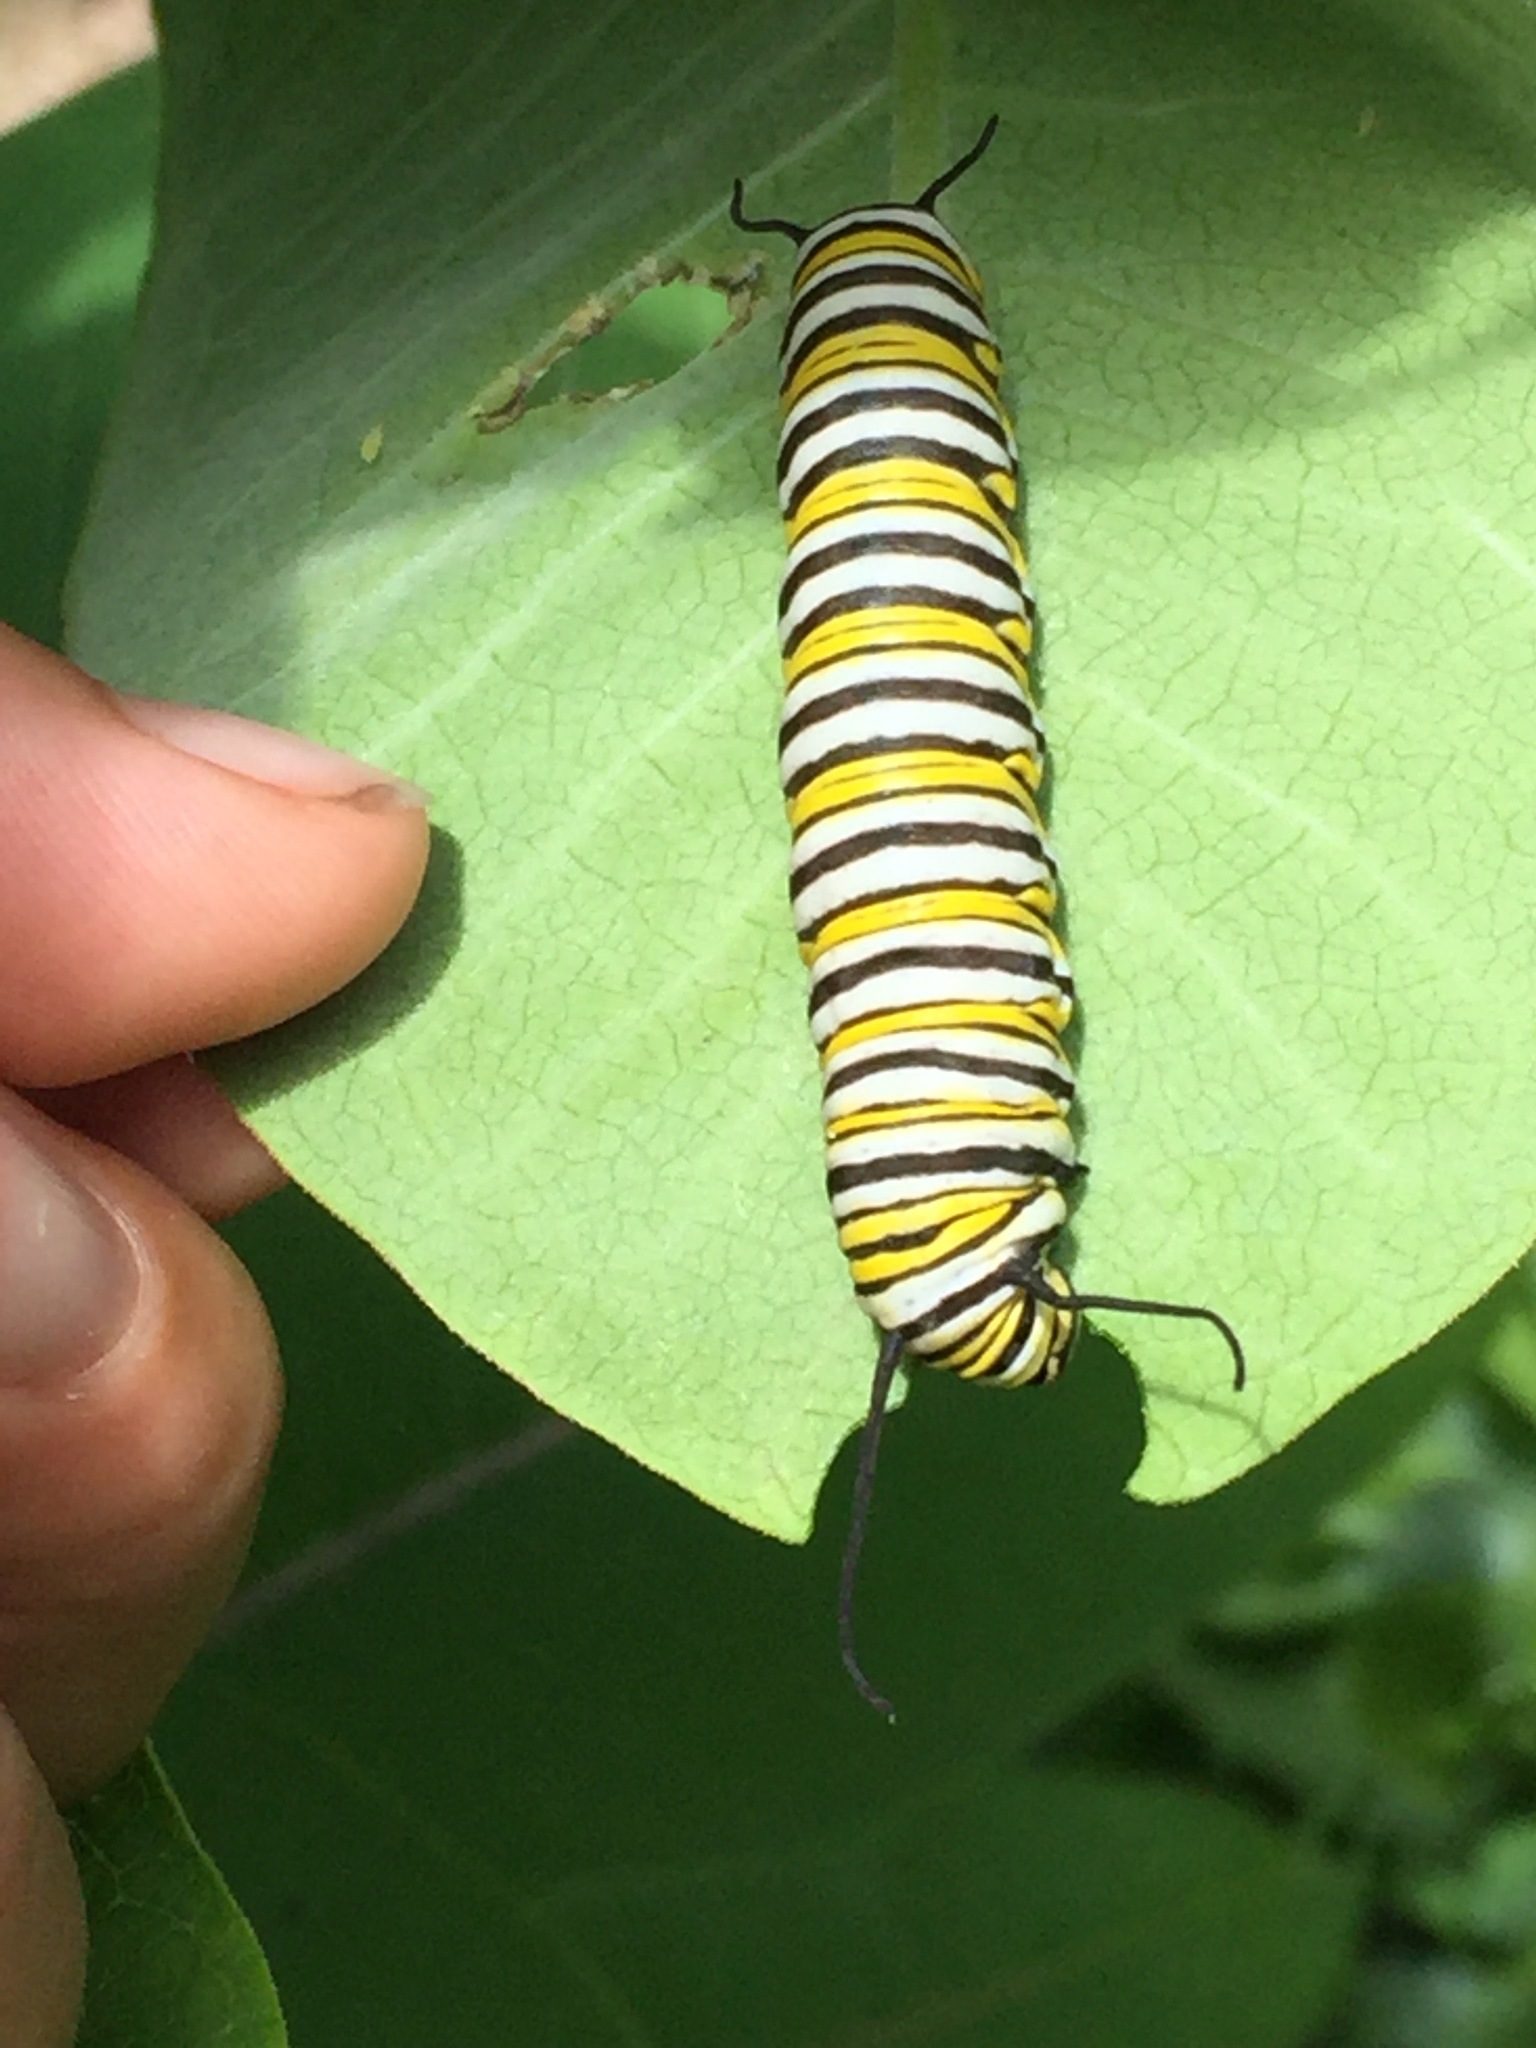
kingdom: Animalia
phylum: Arthropoda
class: Insecta
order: Lepidoptera
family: Nymphalidae
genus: Danaus
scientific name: Danaus plexippus
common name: Monarch
